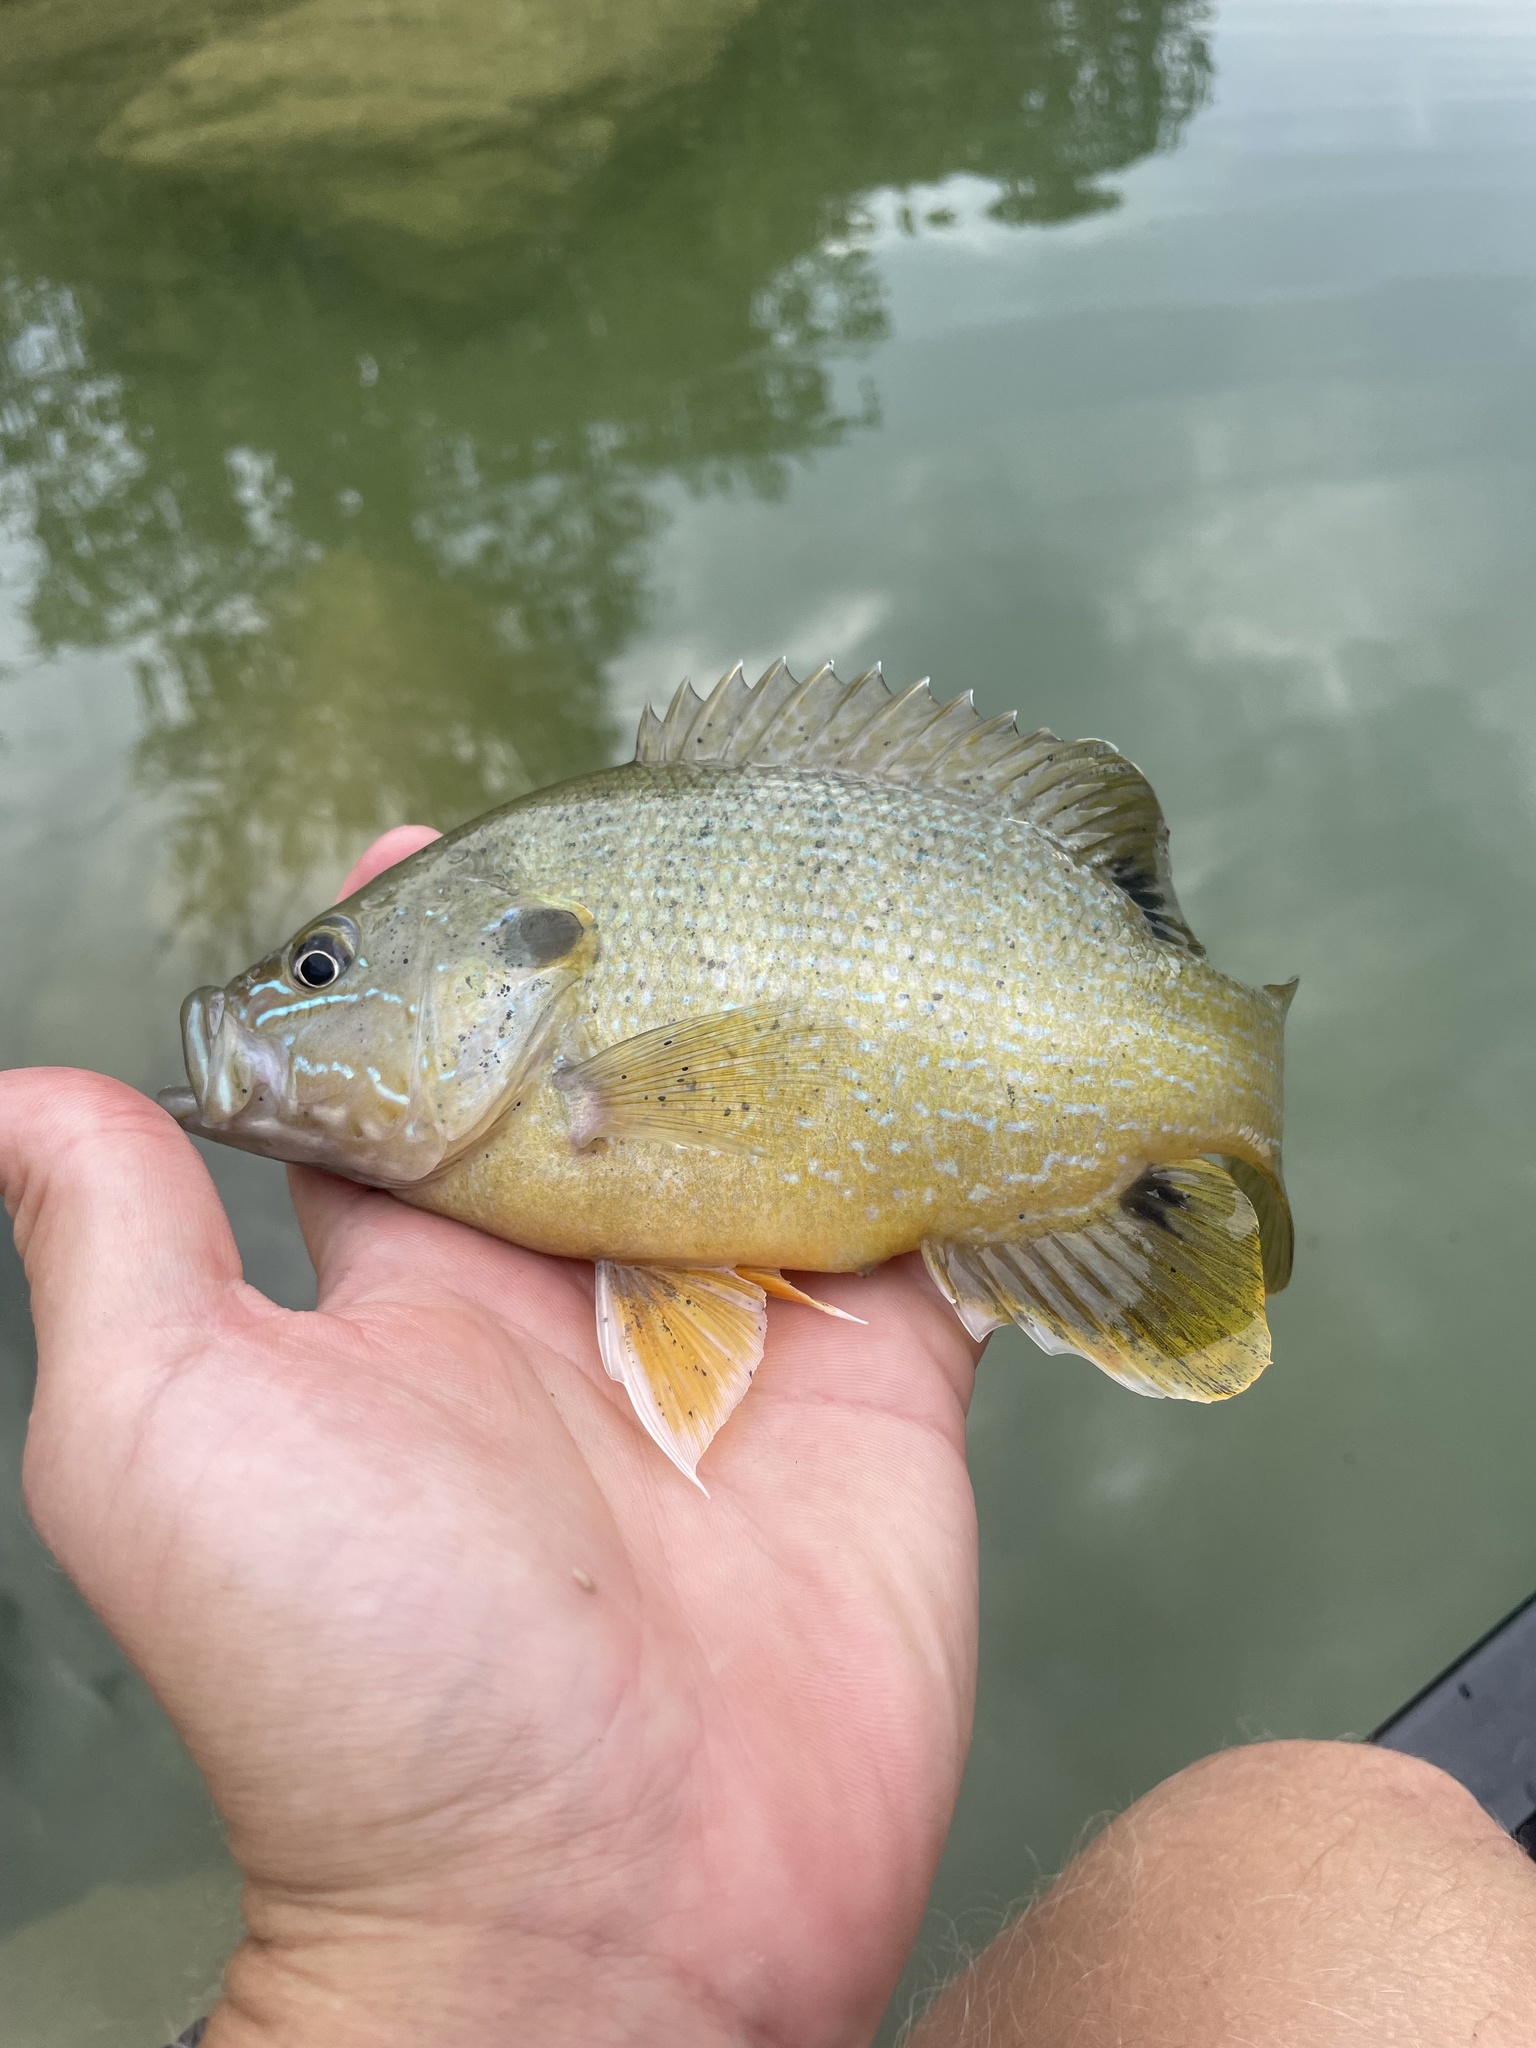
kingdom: Animalia
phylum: Chordata
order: Perciformes
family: Centrarchidae
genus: Lepomis
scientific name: Lepomis cyanellus
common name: Green sunfish
